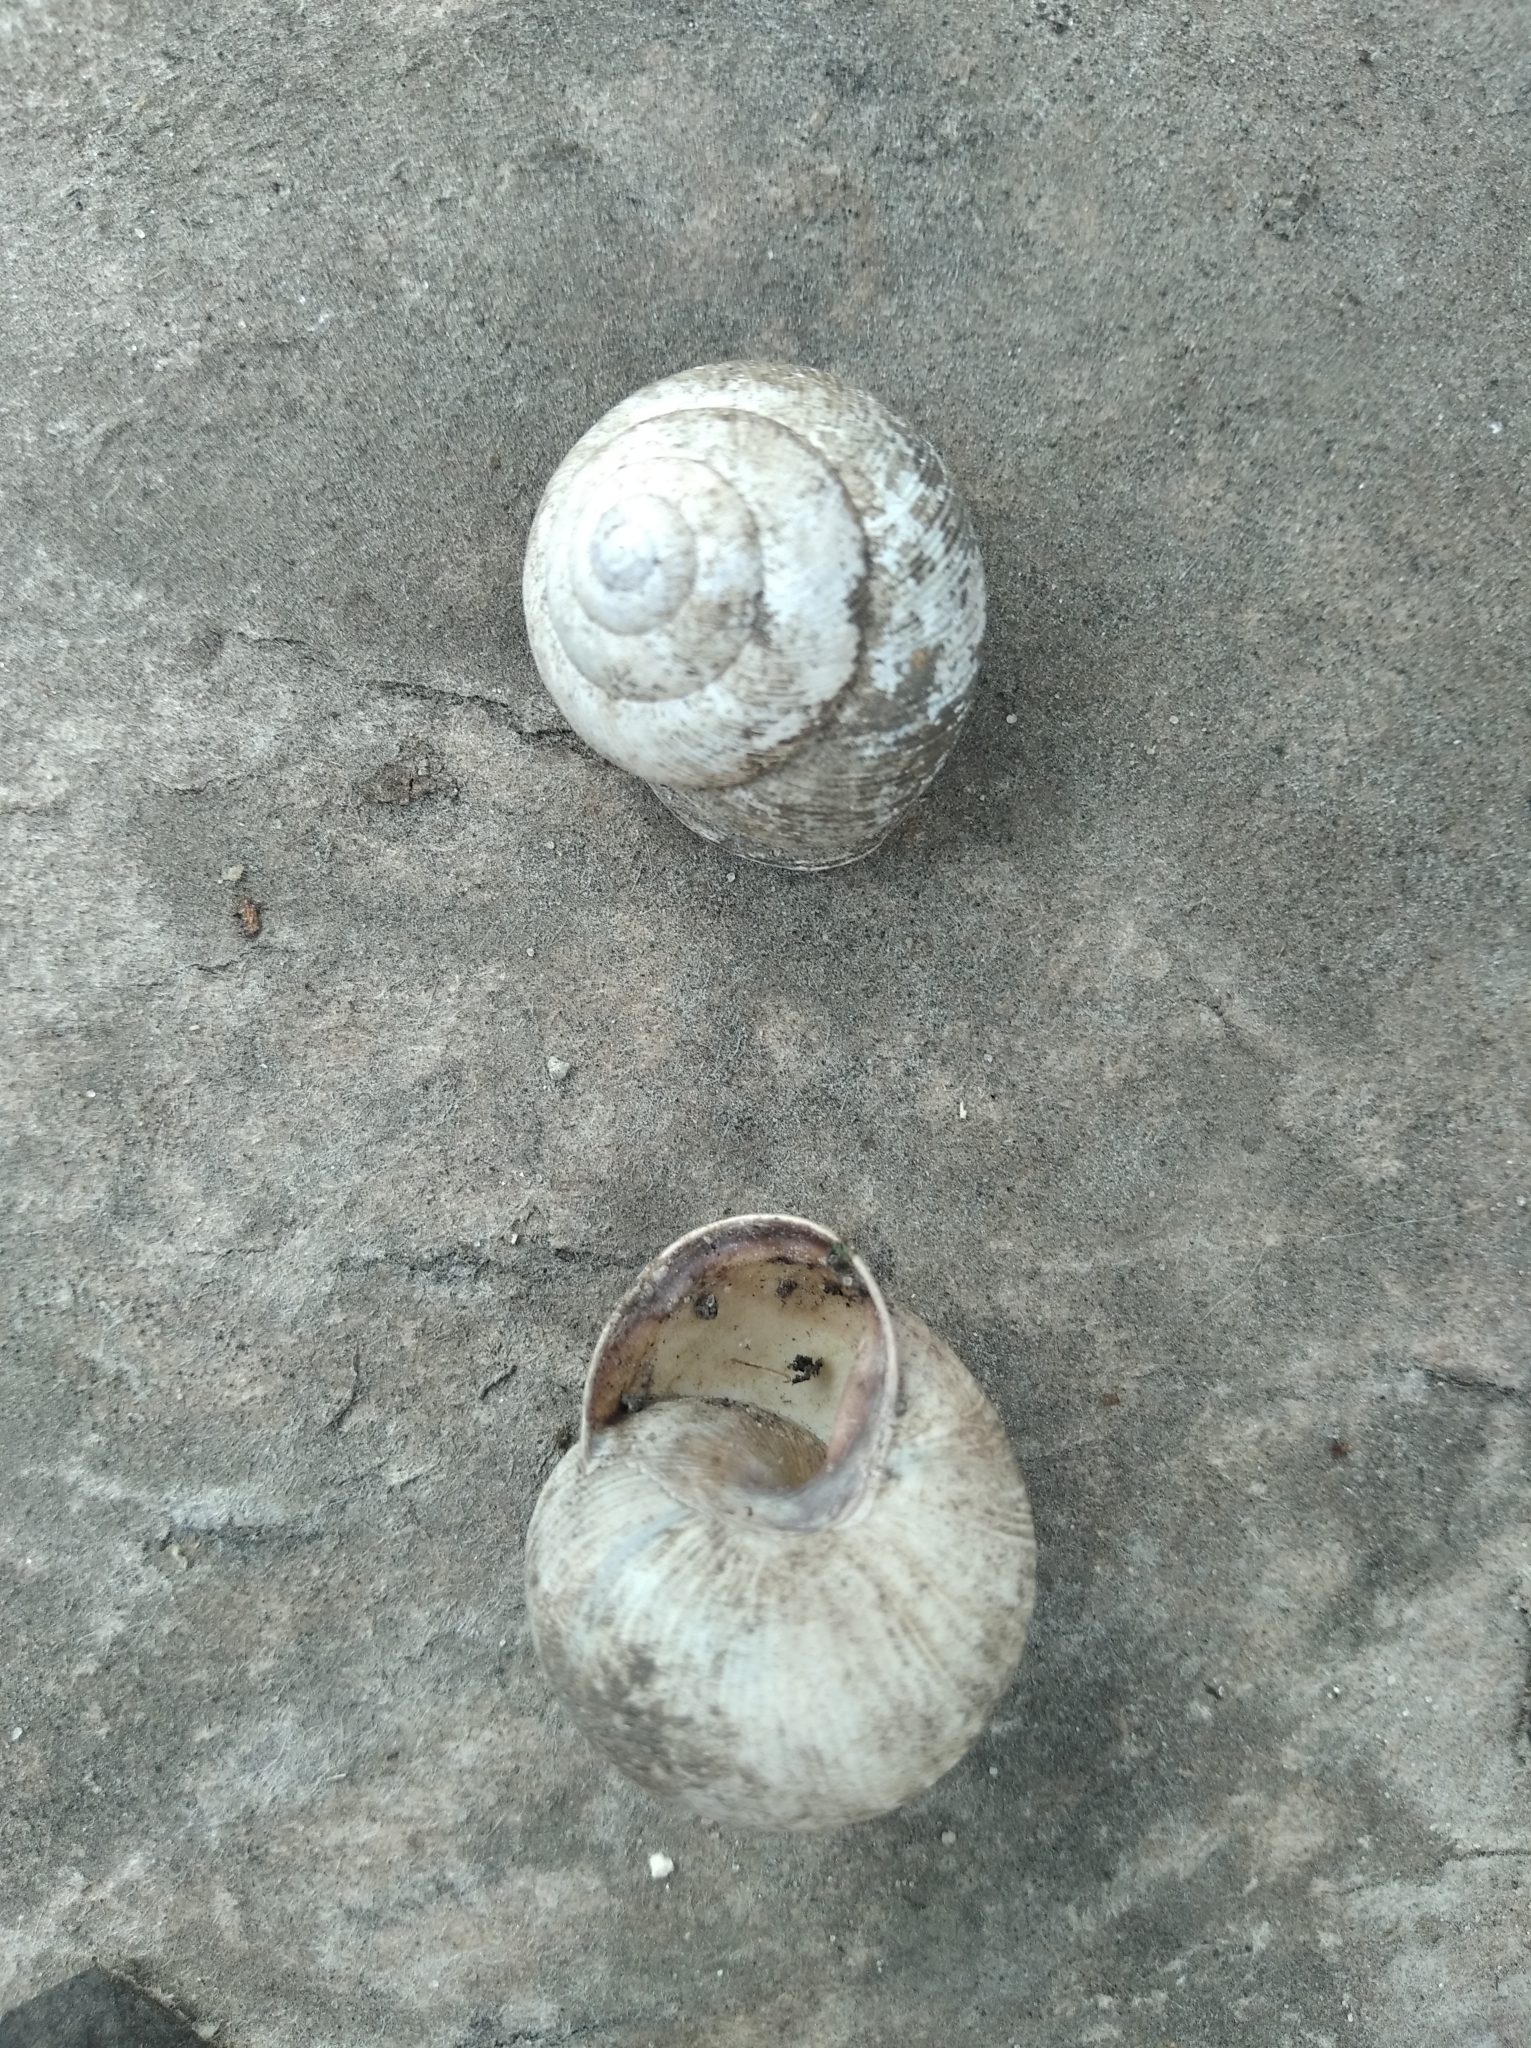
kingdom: Animalia
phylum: Mollusca
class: Gastropoda
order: Stylommatophora
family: Helicidae
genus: Caucasotachea
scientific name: Caucasotachea vindobonensis
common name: European helicid land snail
